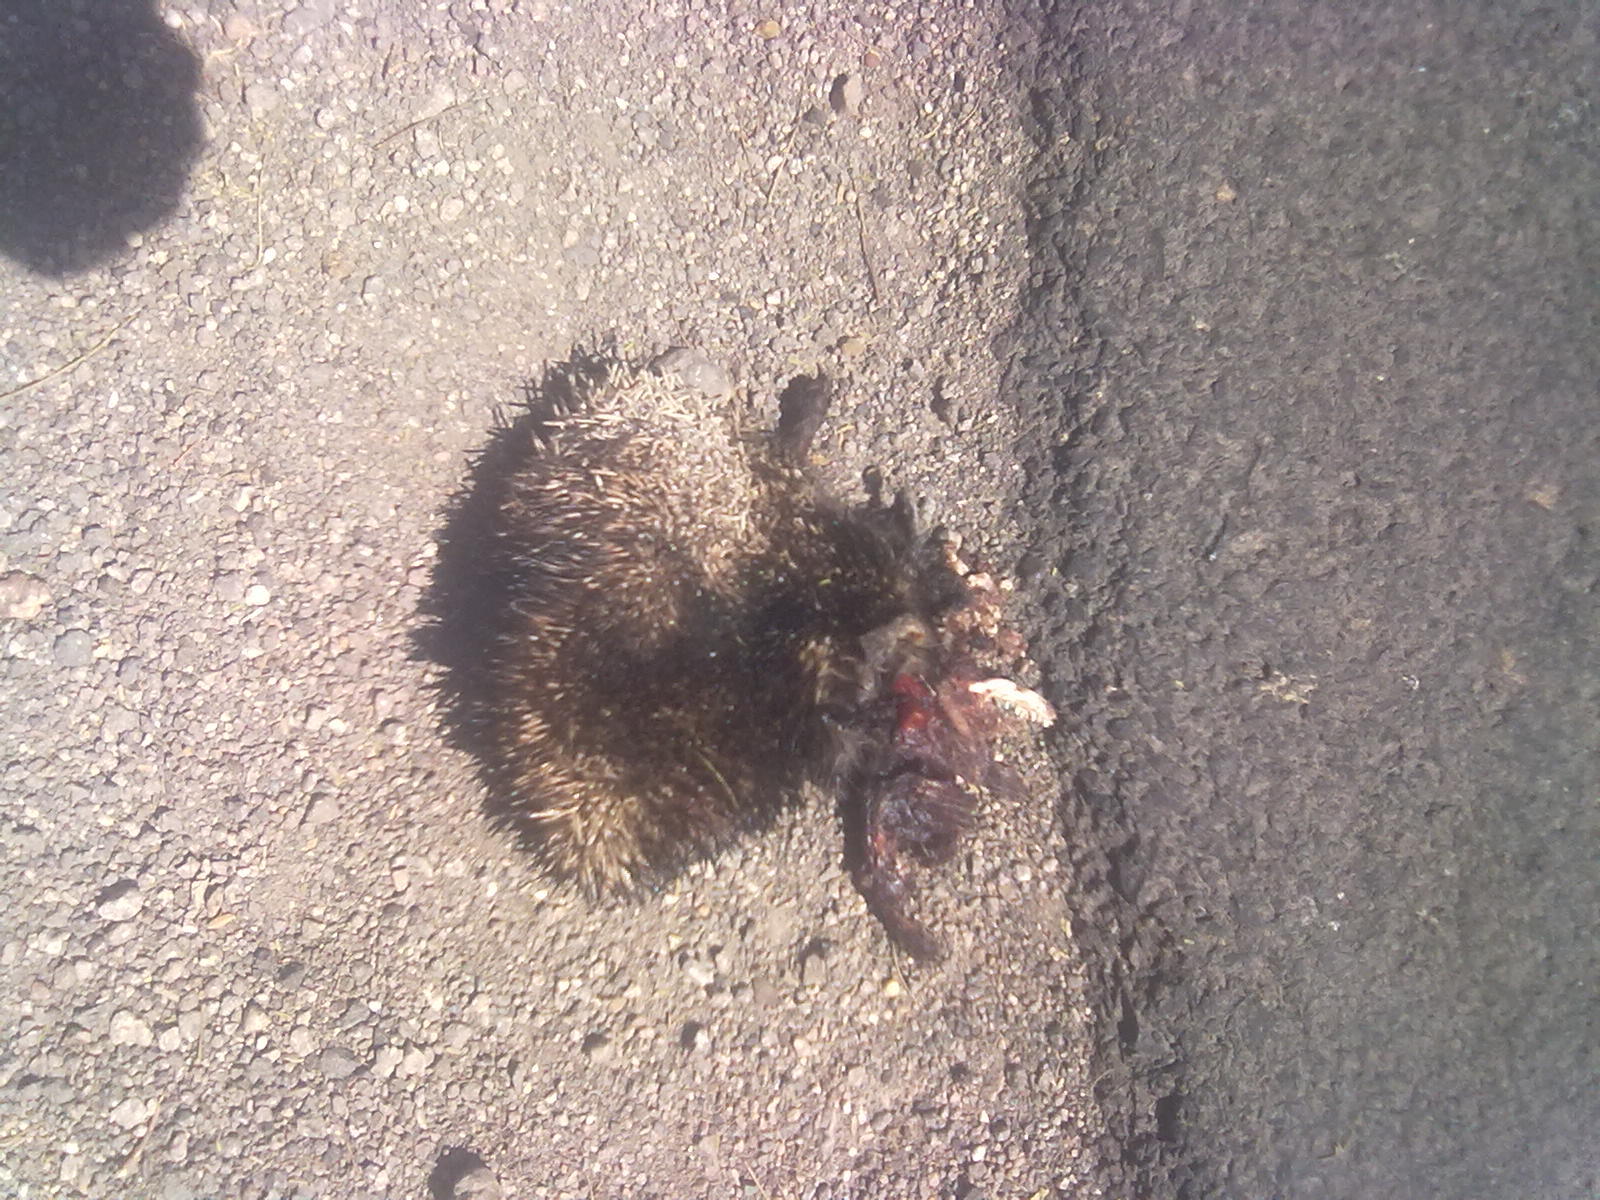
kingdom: Animalia
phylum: Chordata
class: Mammalia
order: Erinaceomorpha
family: Erinaceidae
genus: Paraechinus
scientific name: Paraechinus micropus
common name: Indian hedgehog
